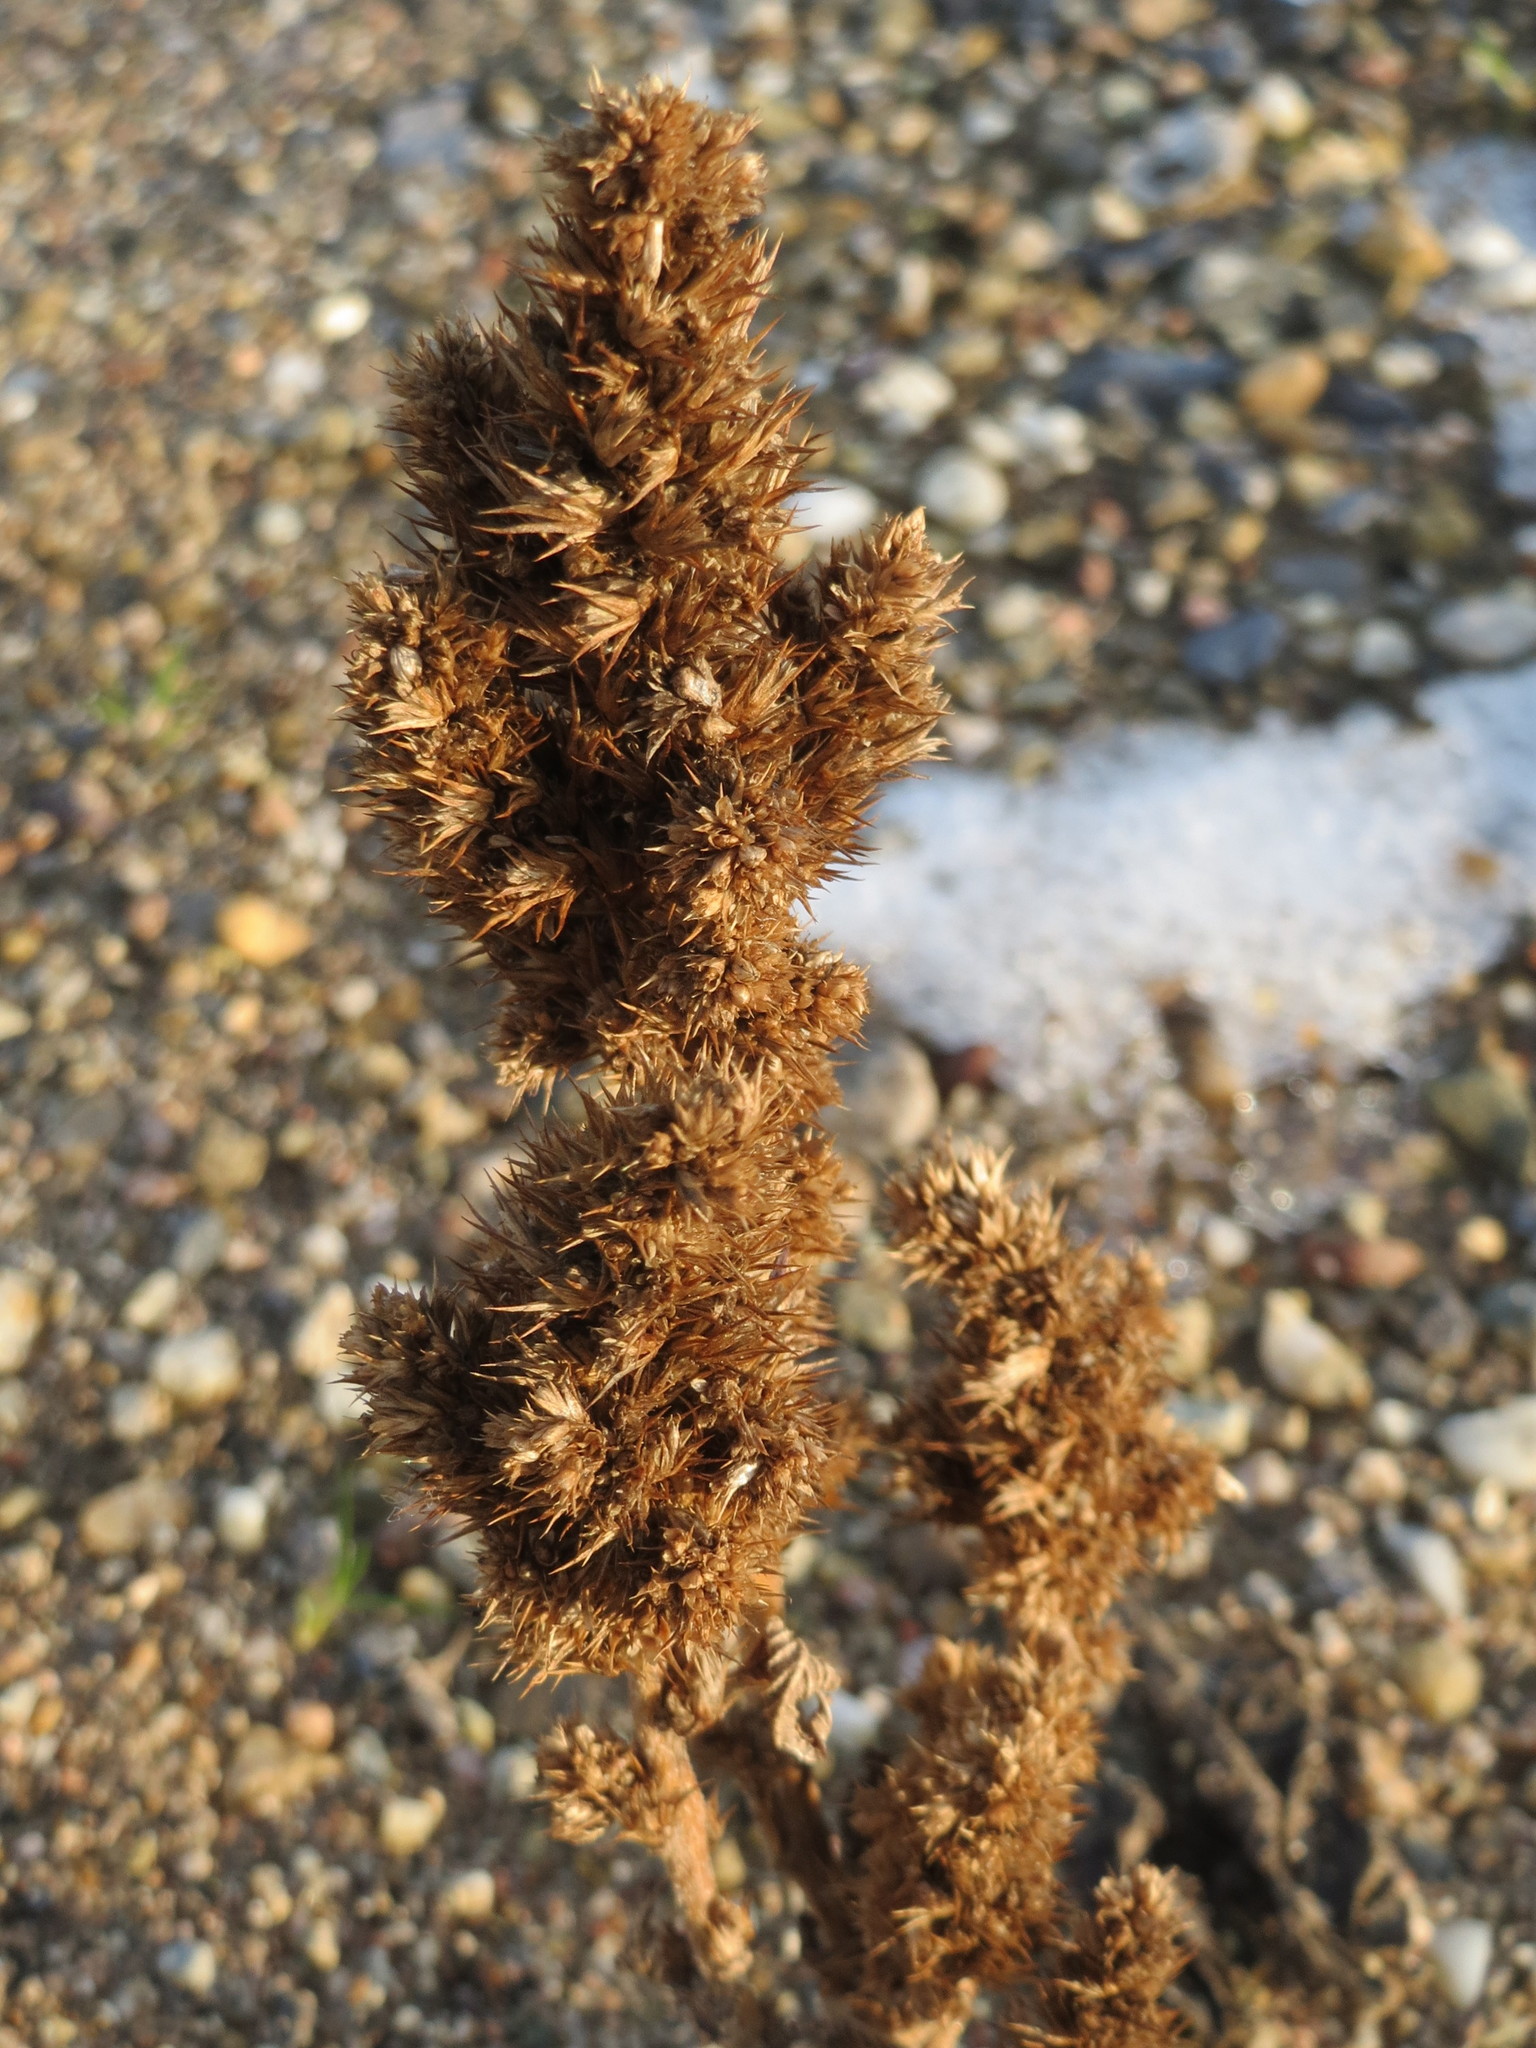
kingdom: Plantae
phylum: Tracheophyta
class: Magnoliopsida
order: Caryophyllales
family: Amaranthaceae
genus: Amaranthus
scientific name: Amaranthus retroflexus
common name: Redroot amaranth
